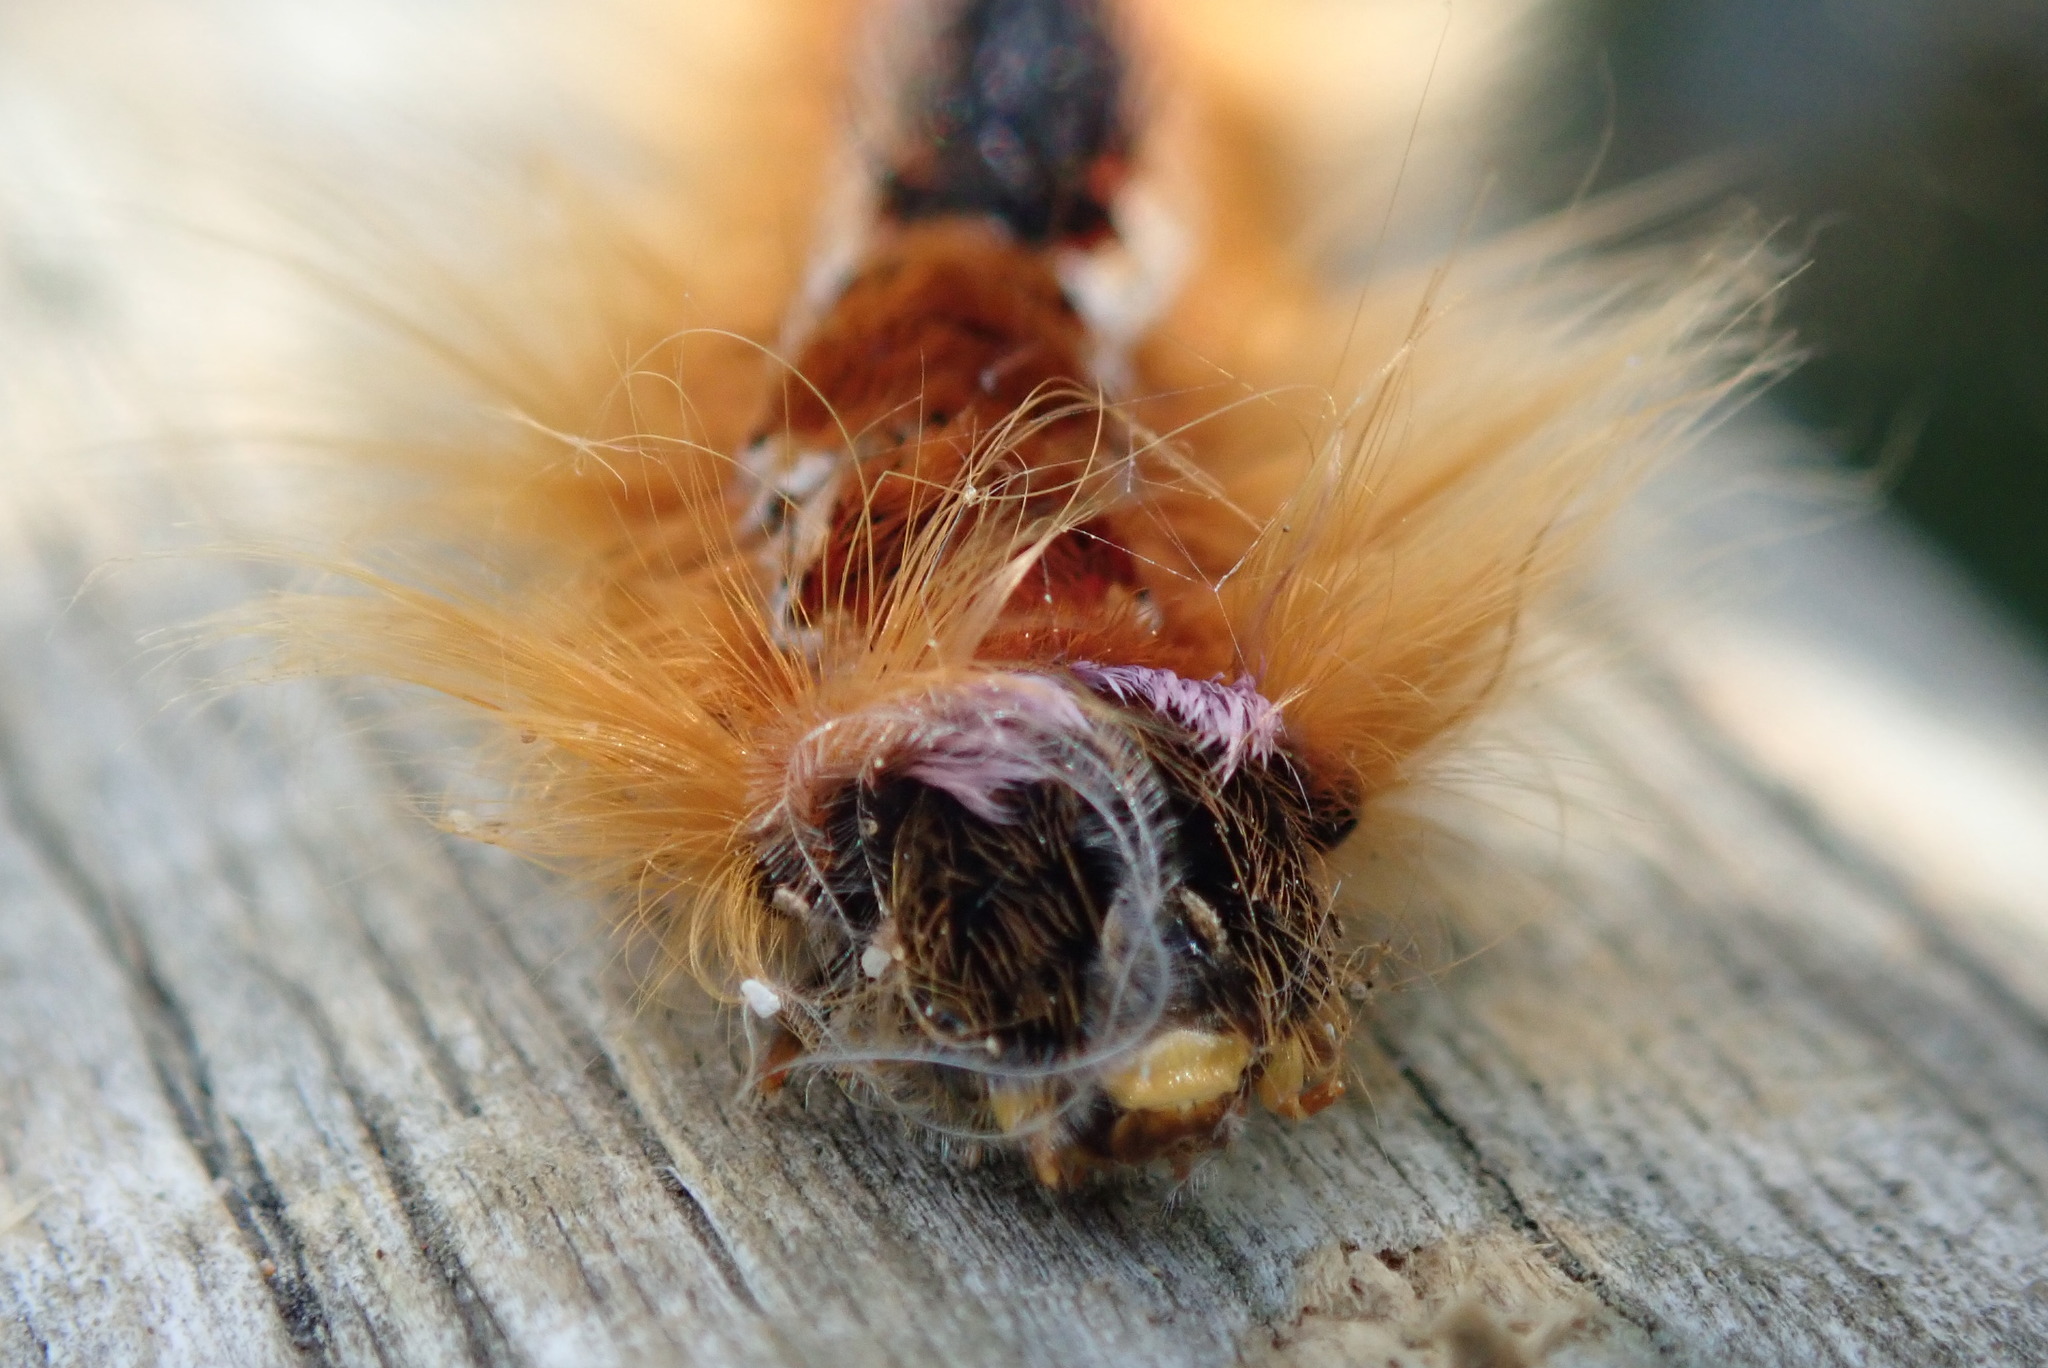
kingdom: Animalia
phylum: Arthropoda
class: Insecta
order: Lepidoptera
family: Lasiocampidae
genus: Eutricha
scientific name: Eutricha capensis
